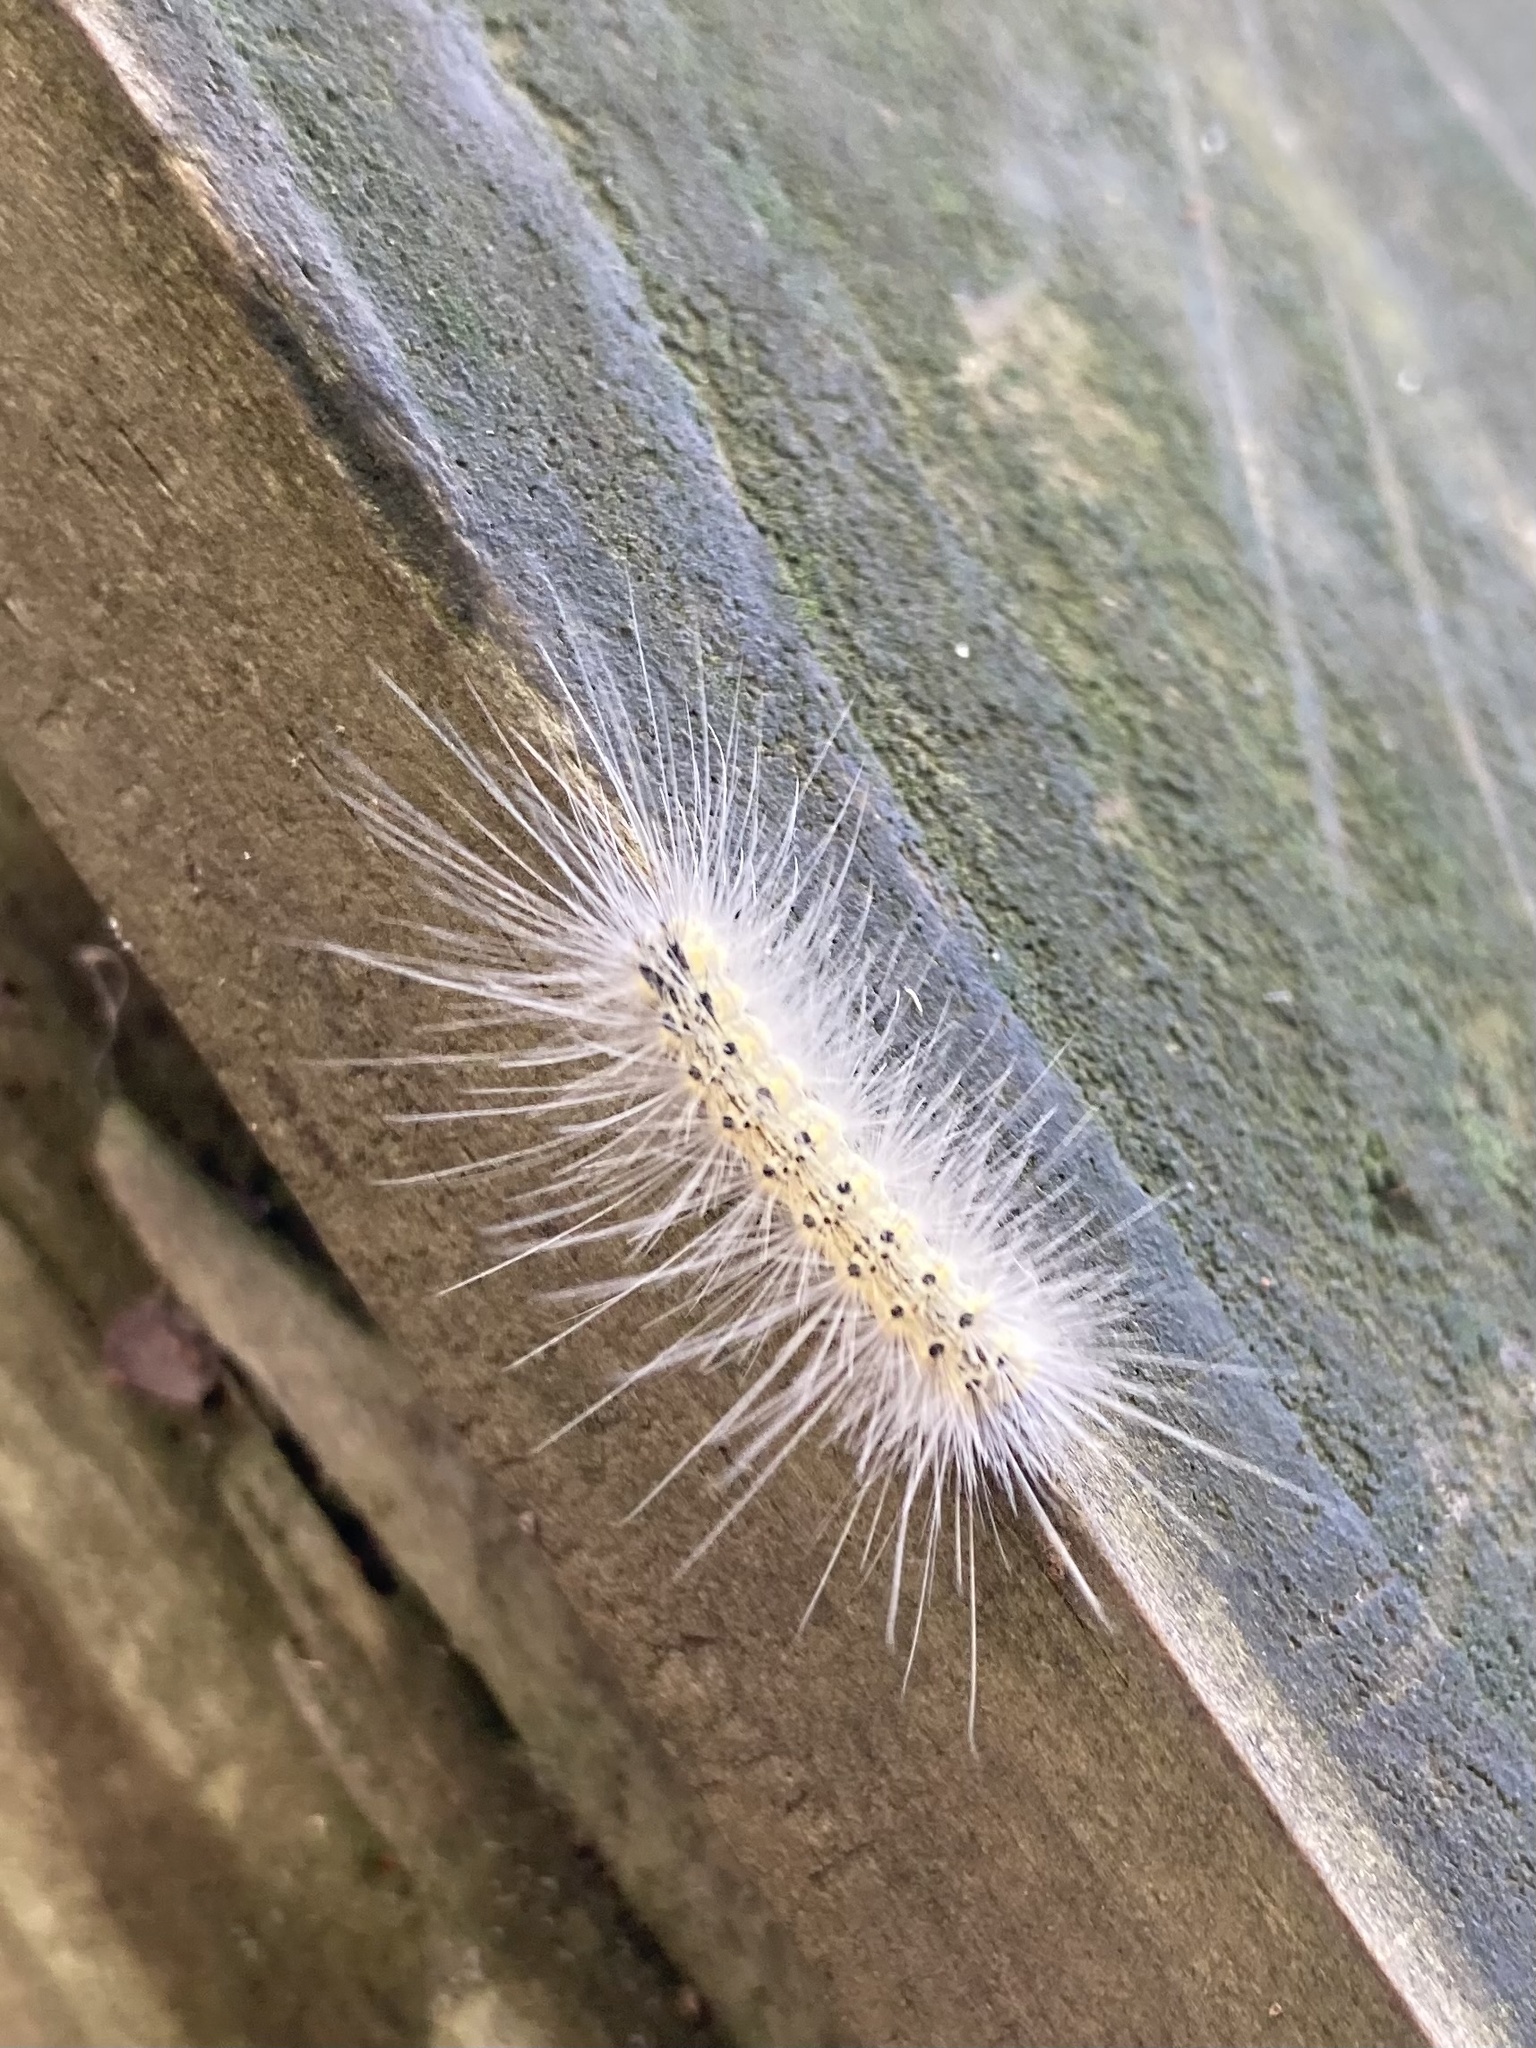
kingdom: Animalia
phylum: Arthropoda
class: Insecta
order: Lepidoptera
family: Erebidae
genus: Hyphantria
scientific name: Hyphantria cunea
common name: American white moth
